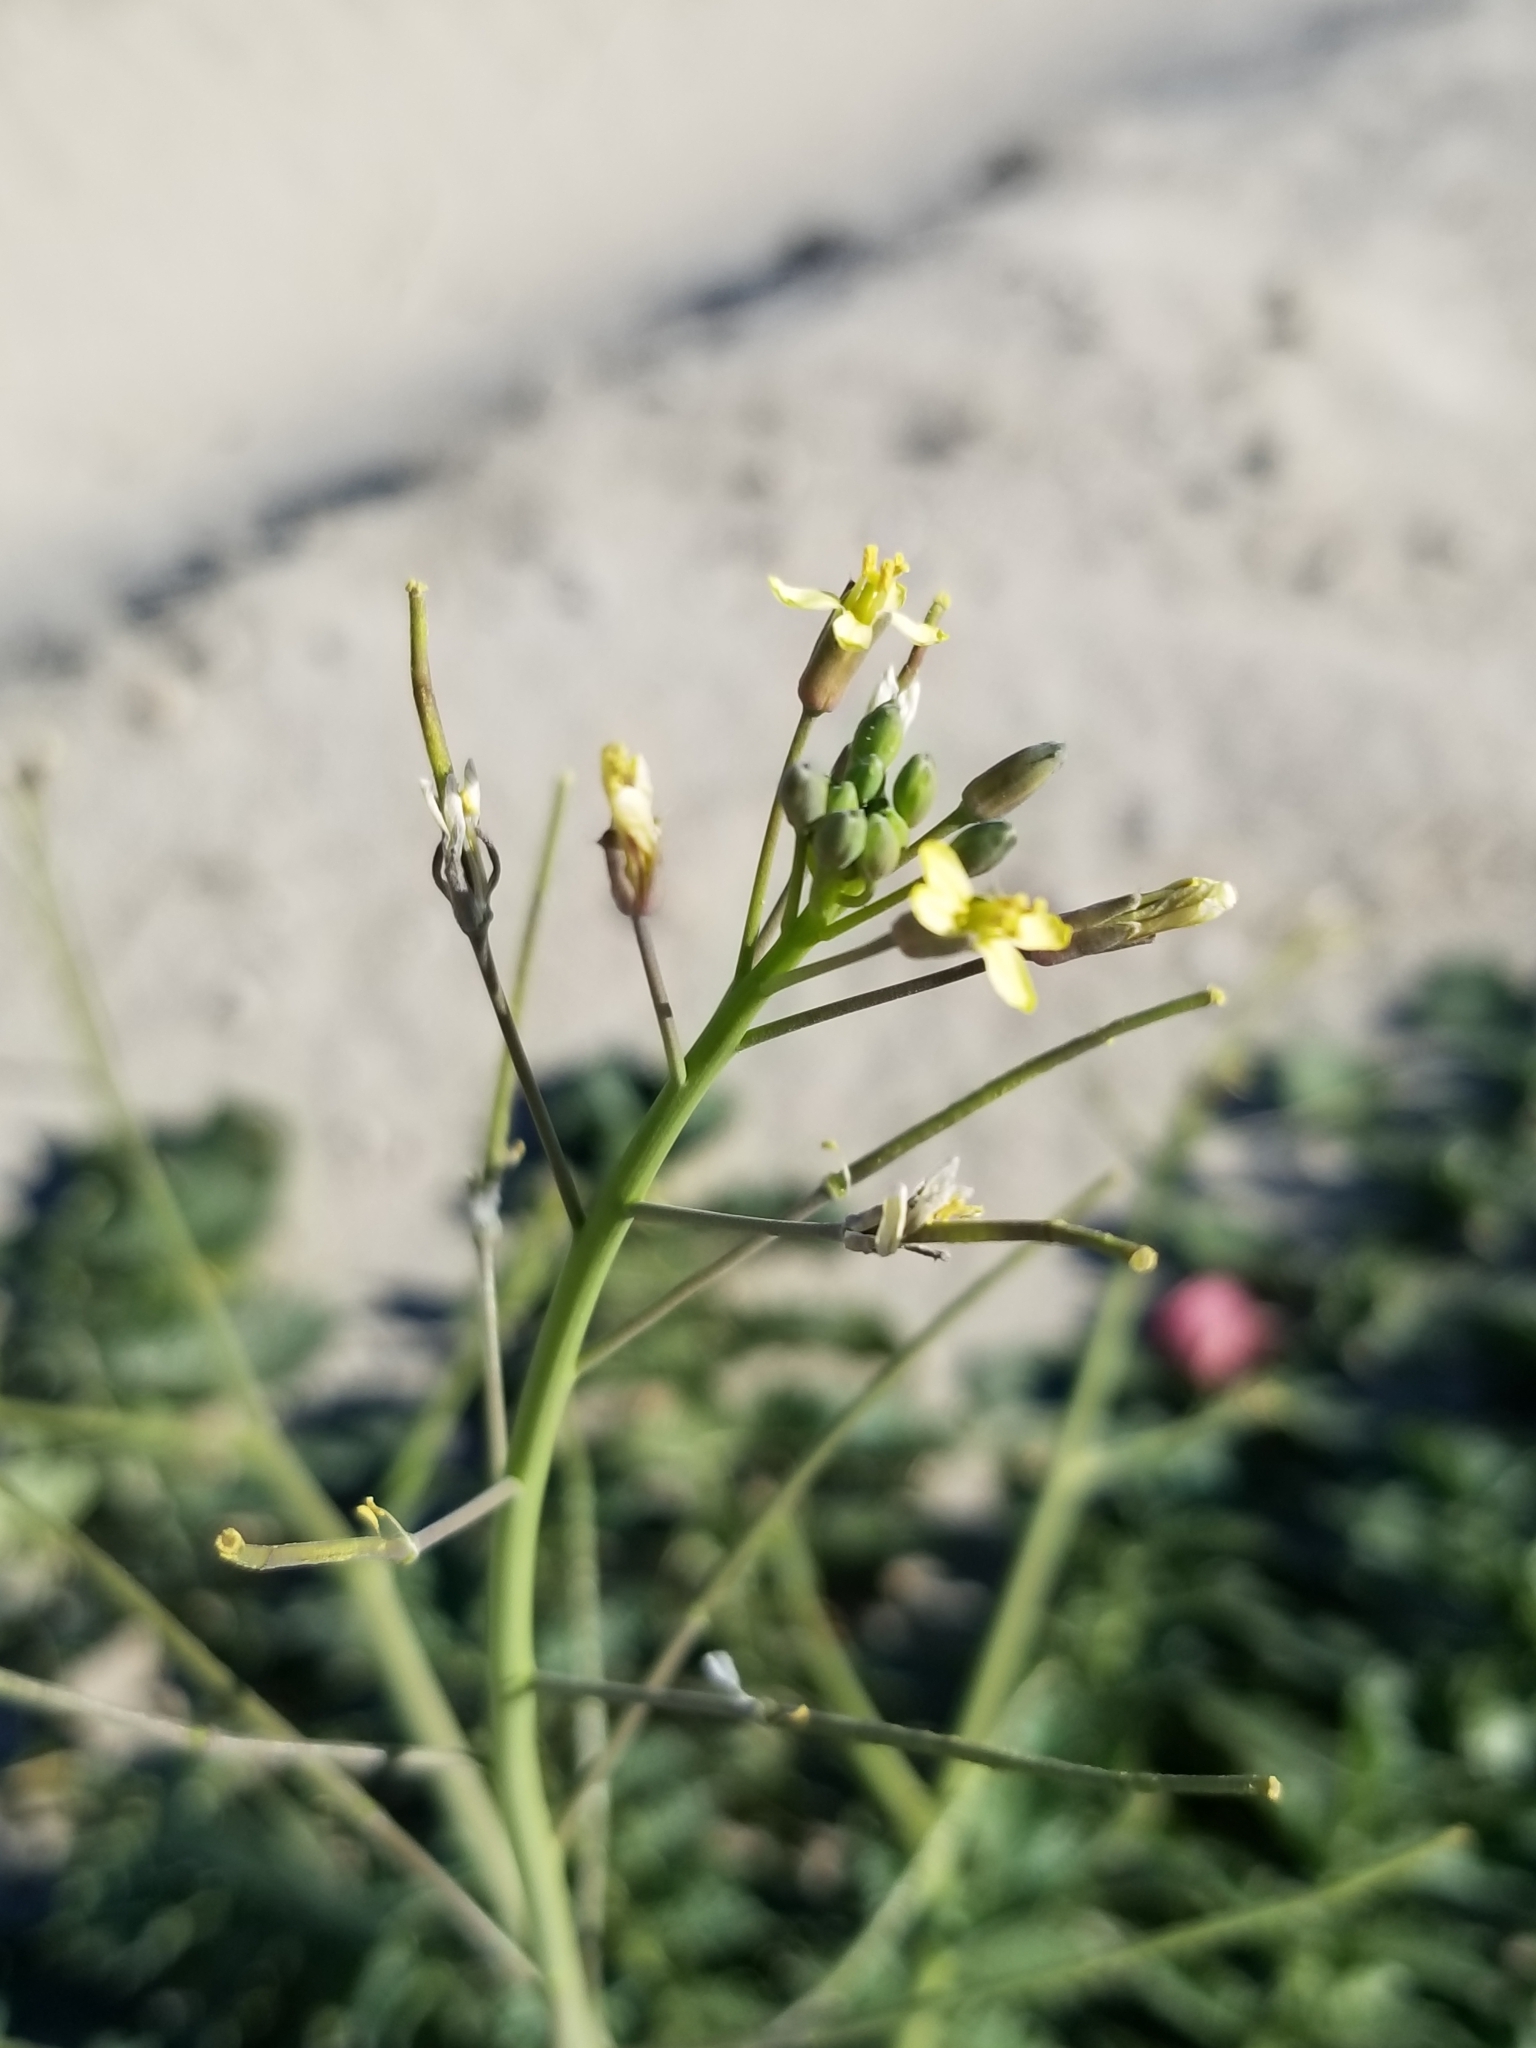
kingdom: Plantae
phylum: Tracheophyta
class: Magnoliopsida
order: Brassicales
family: Brassicaceae
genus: Brassica
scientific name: Brassica tournefortii
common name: Pale cabbage
